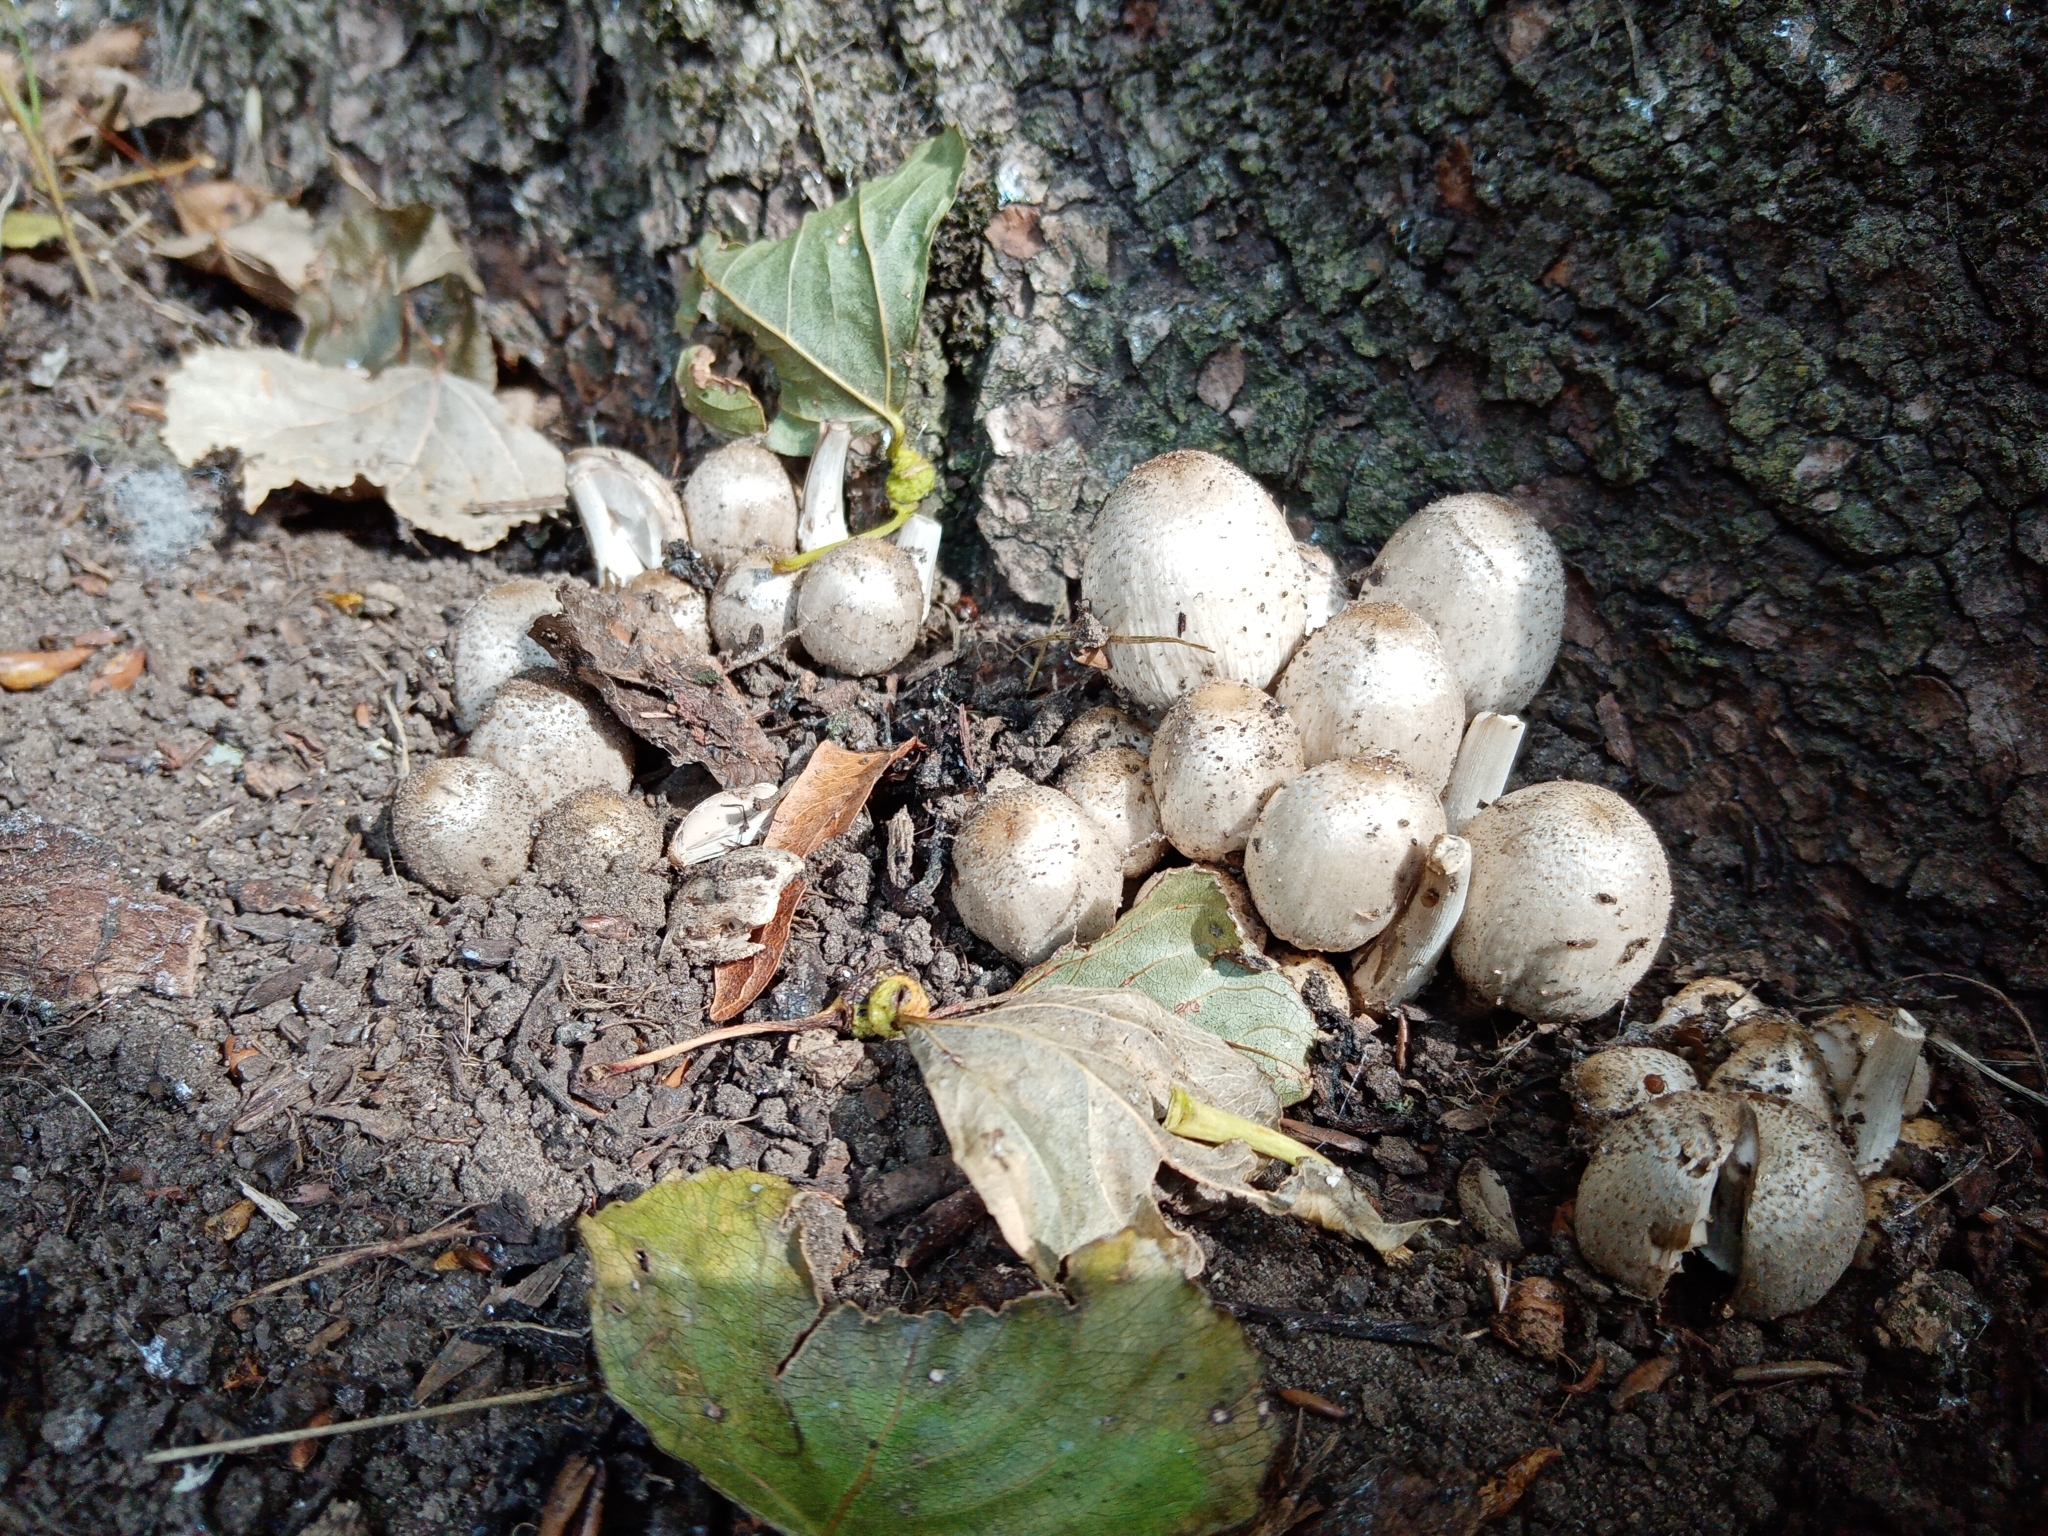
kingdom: Fungi
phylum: Basidiomycota
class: Agaricomycetes
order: Agaricales
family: Psathyrellaceae
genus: Coprinopsis
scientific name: Coprinopsis atramentaria
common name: Common ink-cap
